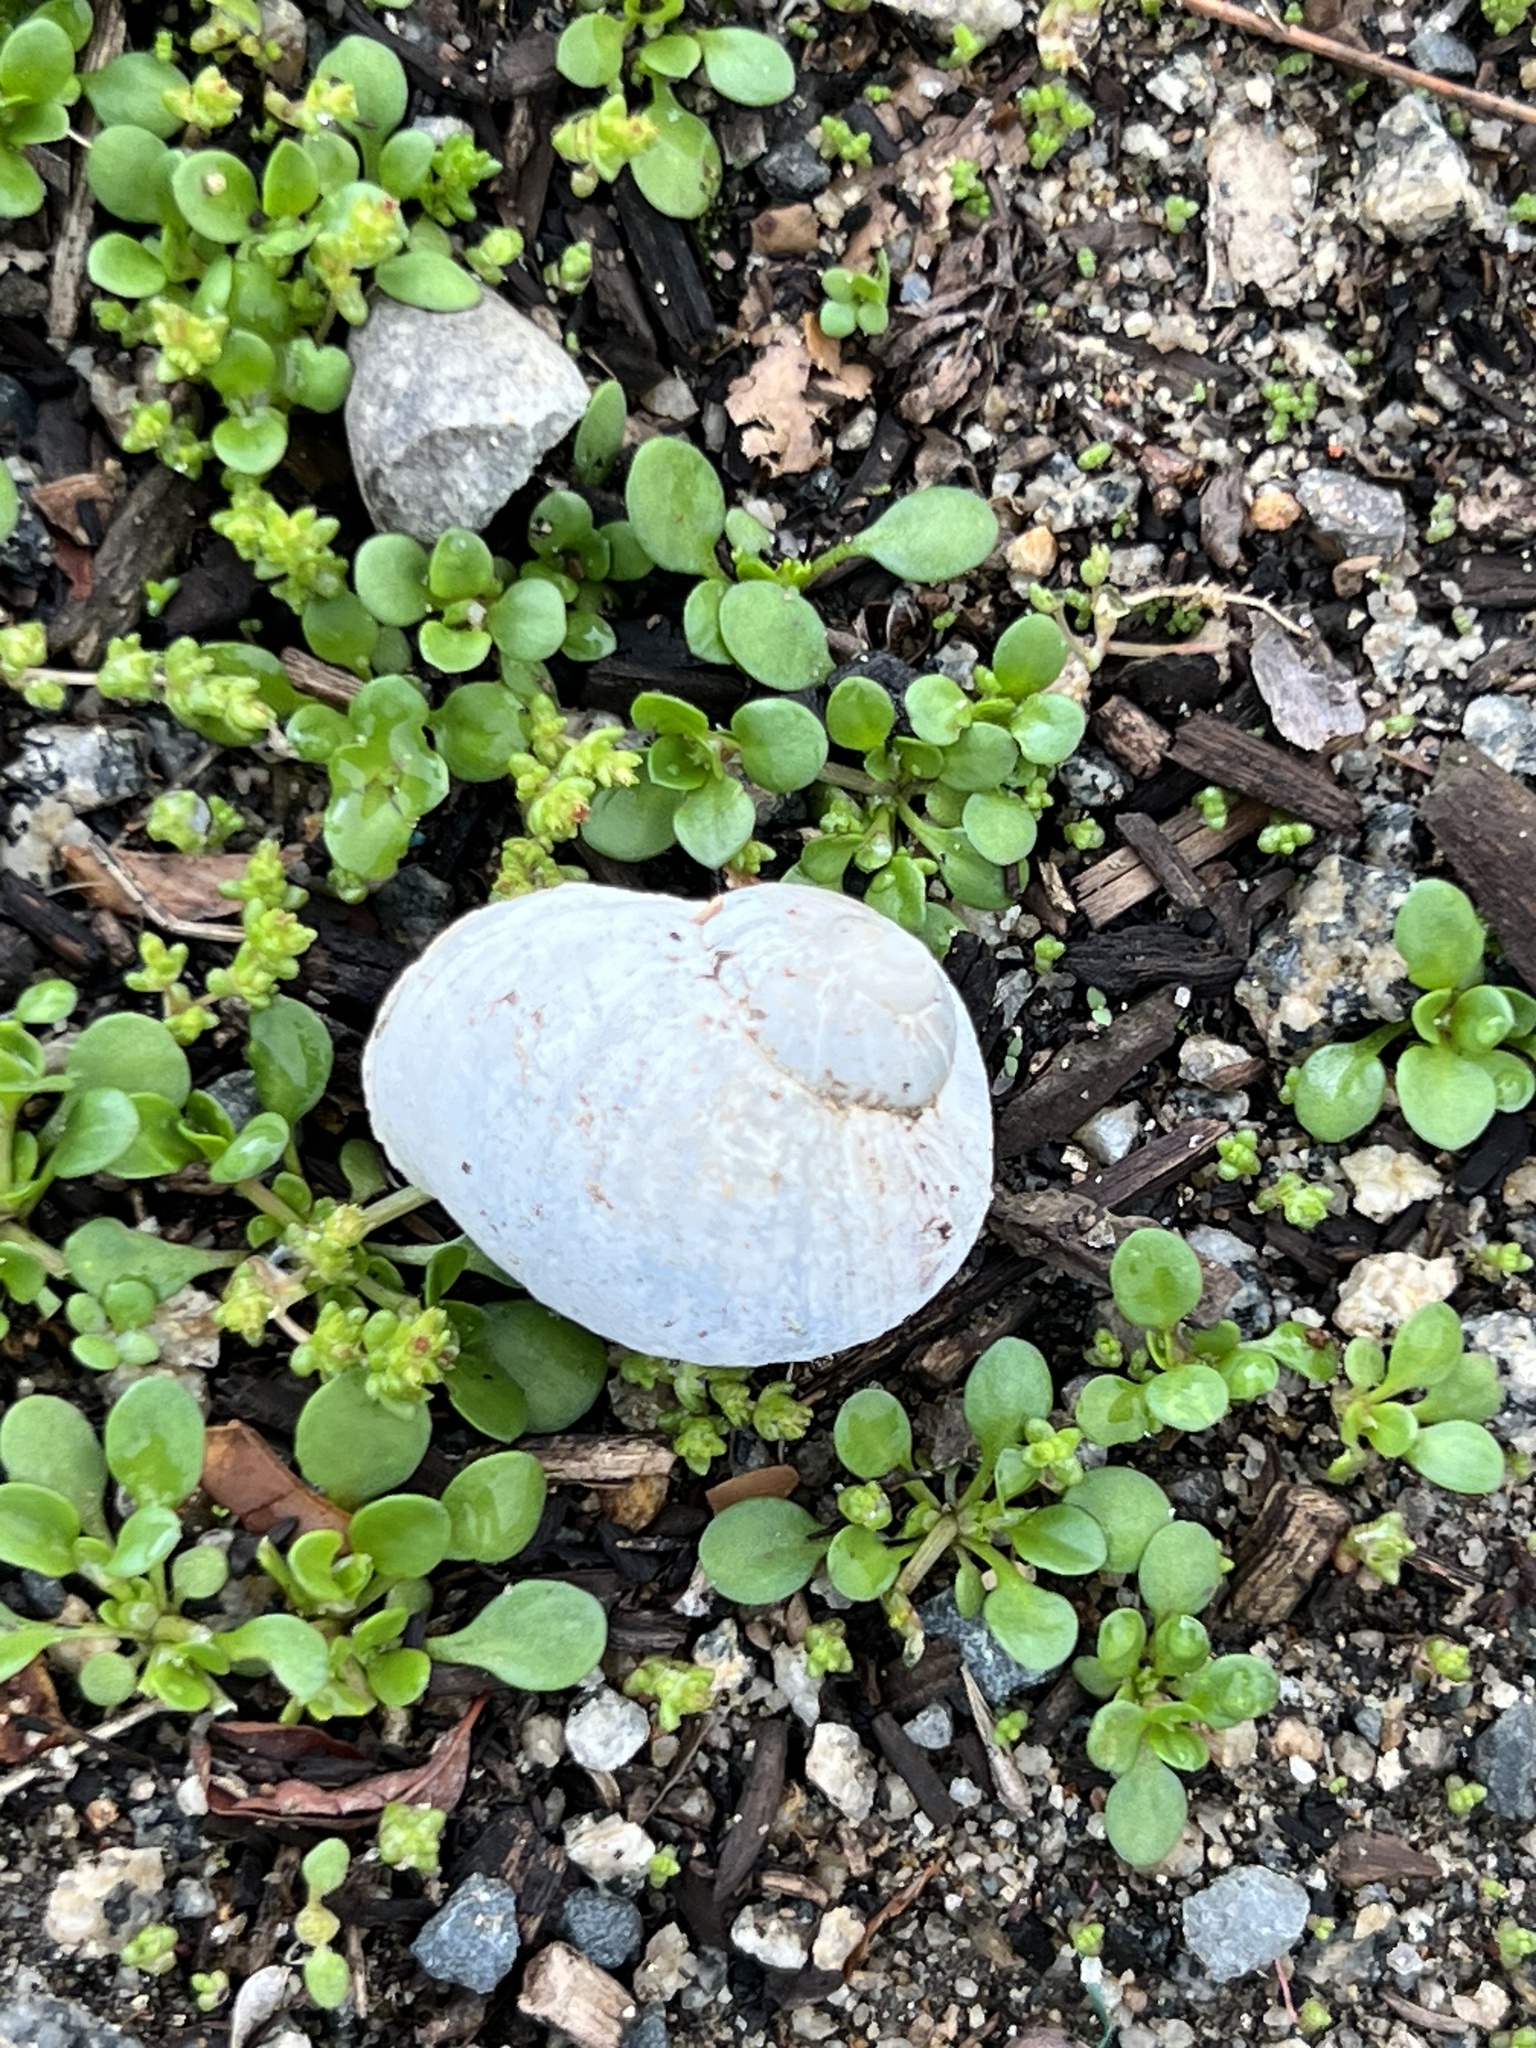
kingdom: Animalia
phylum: Mollusca
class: Gastropoda
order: Stylommatophora
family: Helicidae
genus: Cornu
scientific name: Cornu aspersum
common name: Brown garden snail
